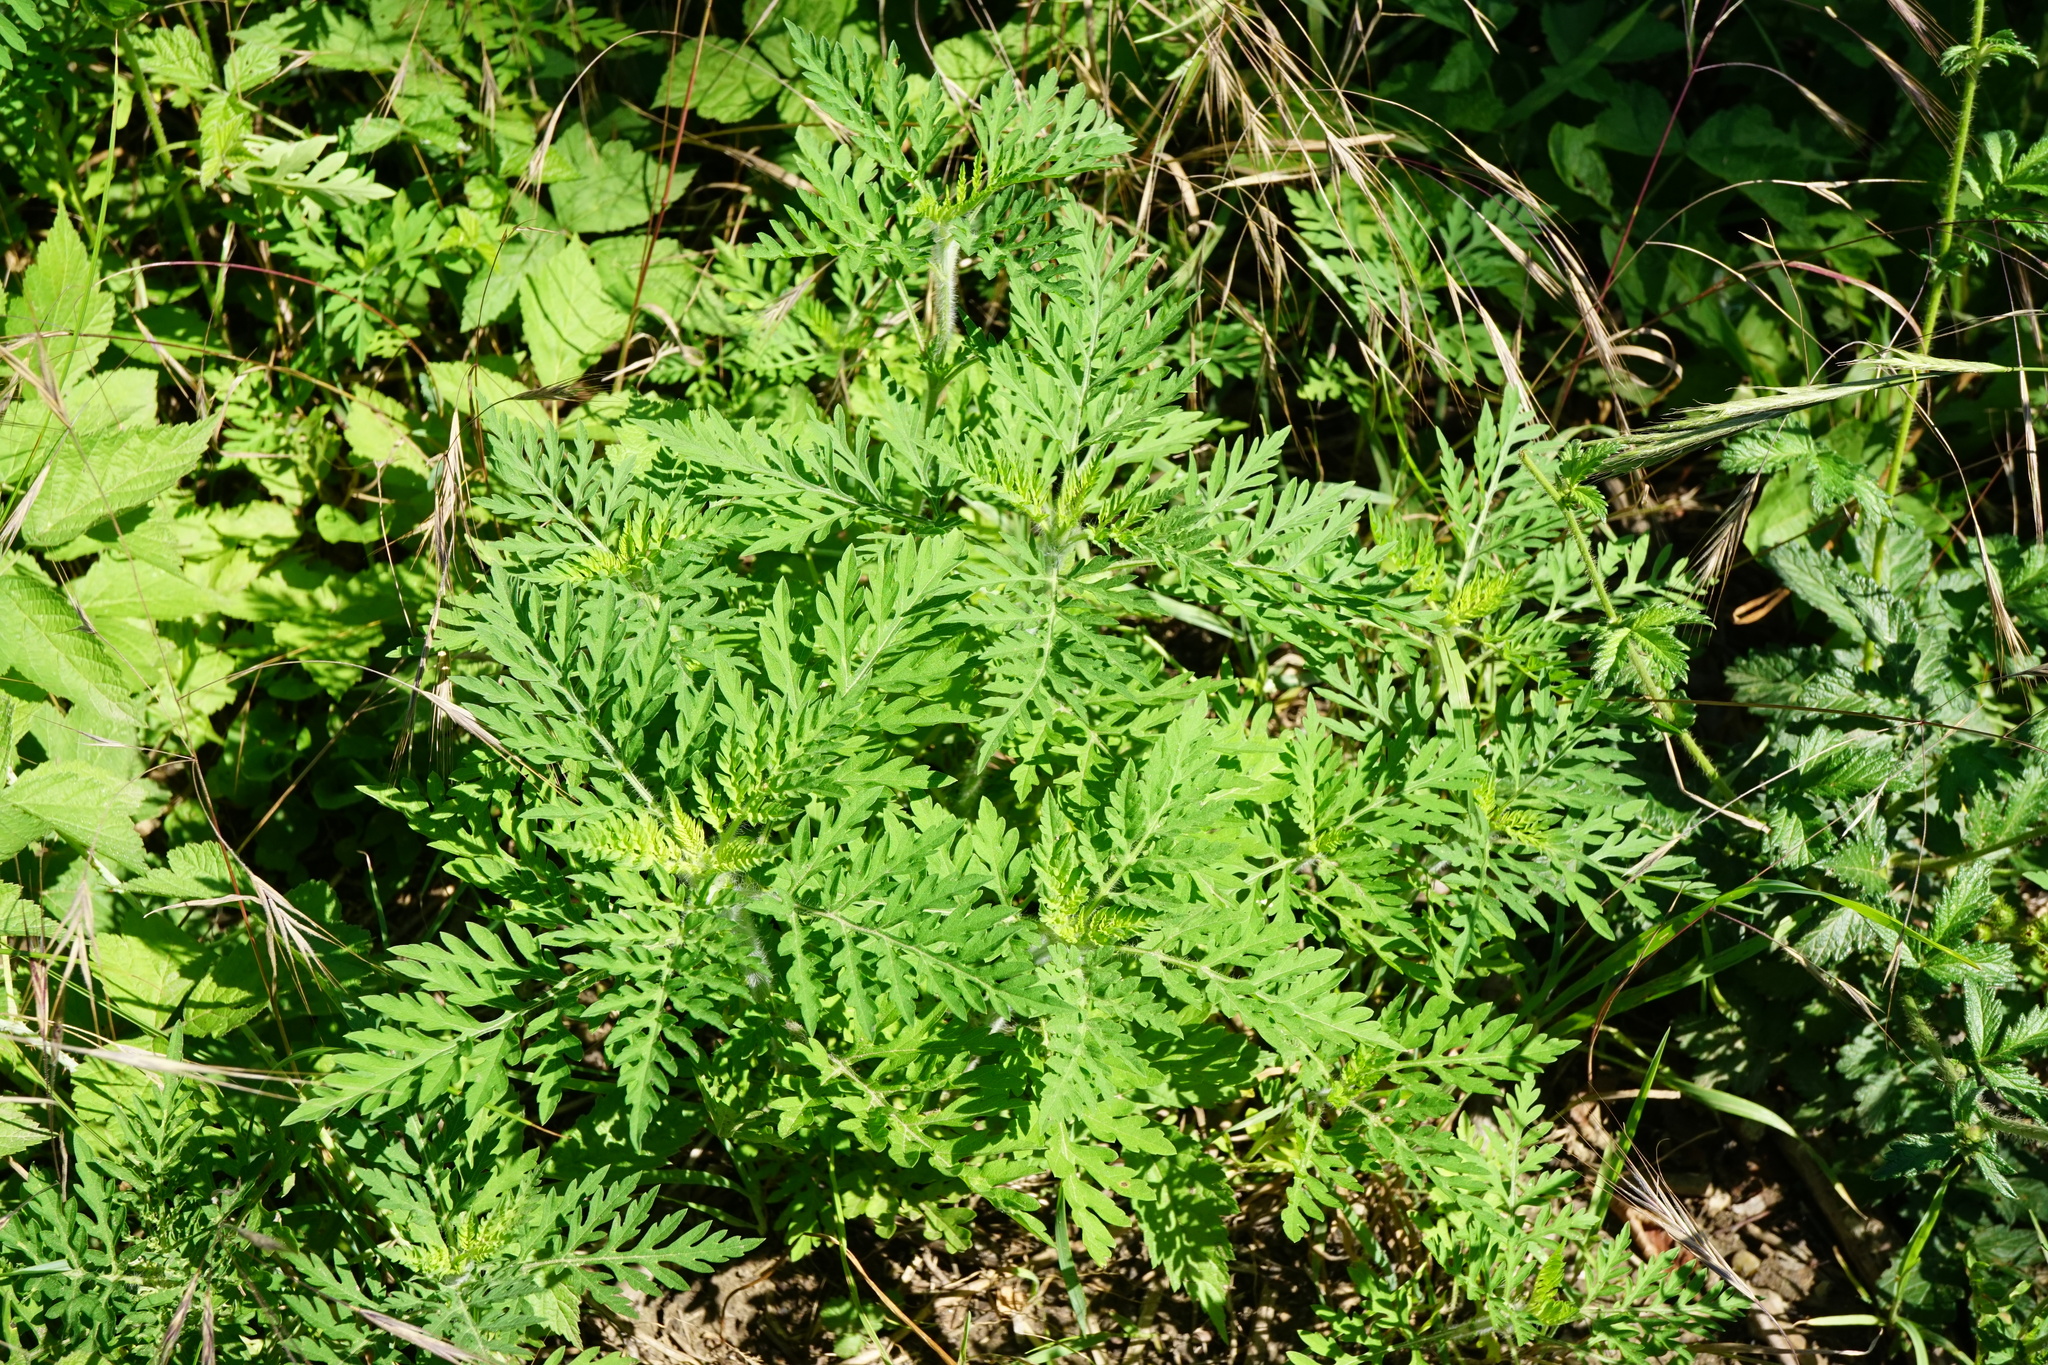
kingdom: Plantae
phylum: Tracheophyta
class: Magnoliopsida
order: Asterales
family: Asteraceae
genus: Ambrosia
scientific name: Ambrosia artemisiifolia
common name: Annual ragweed
